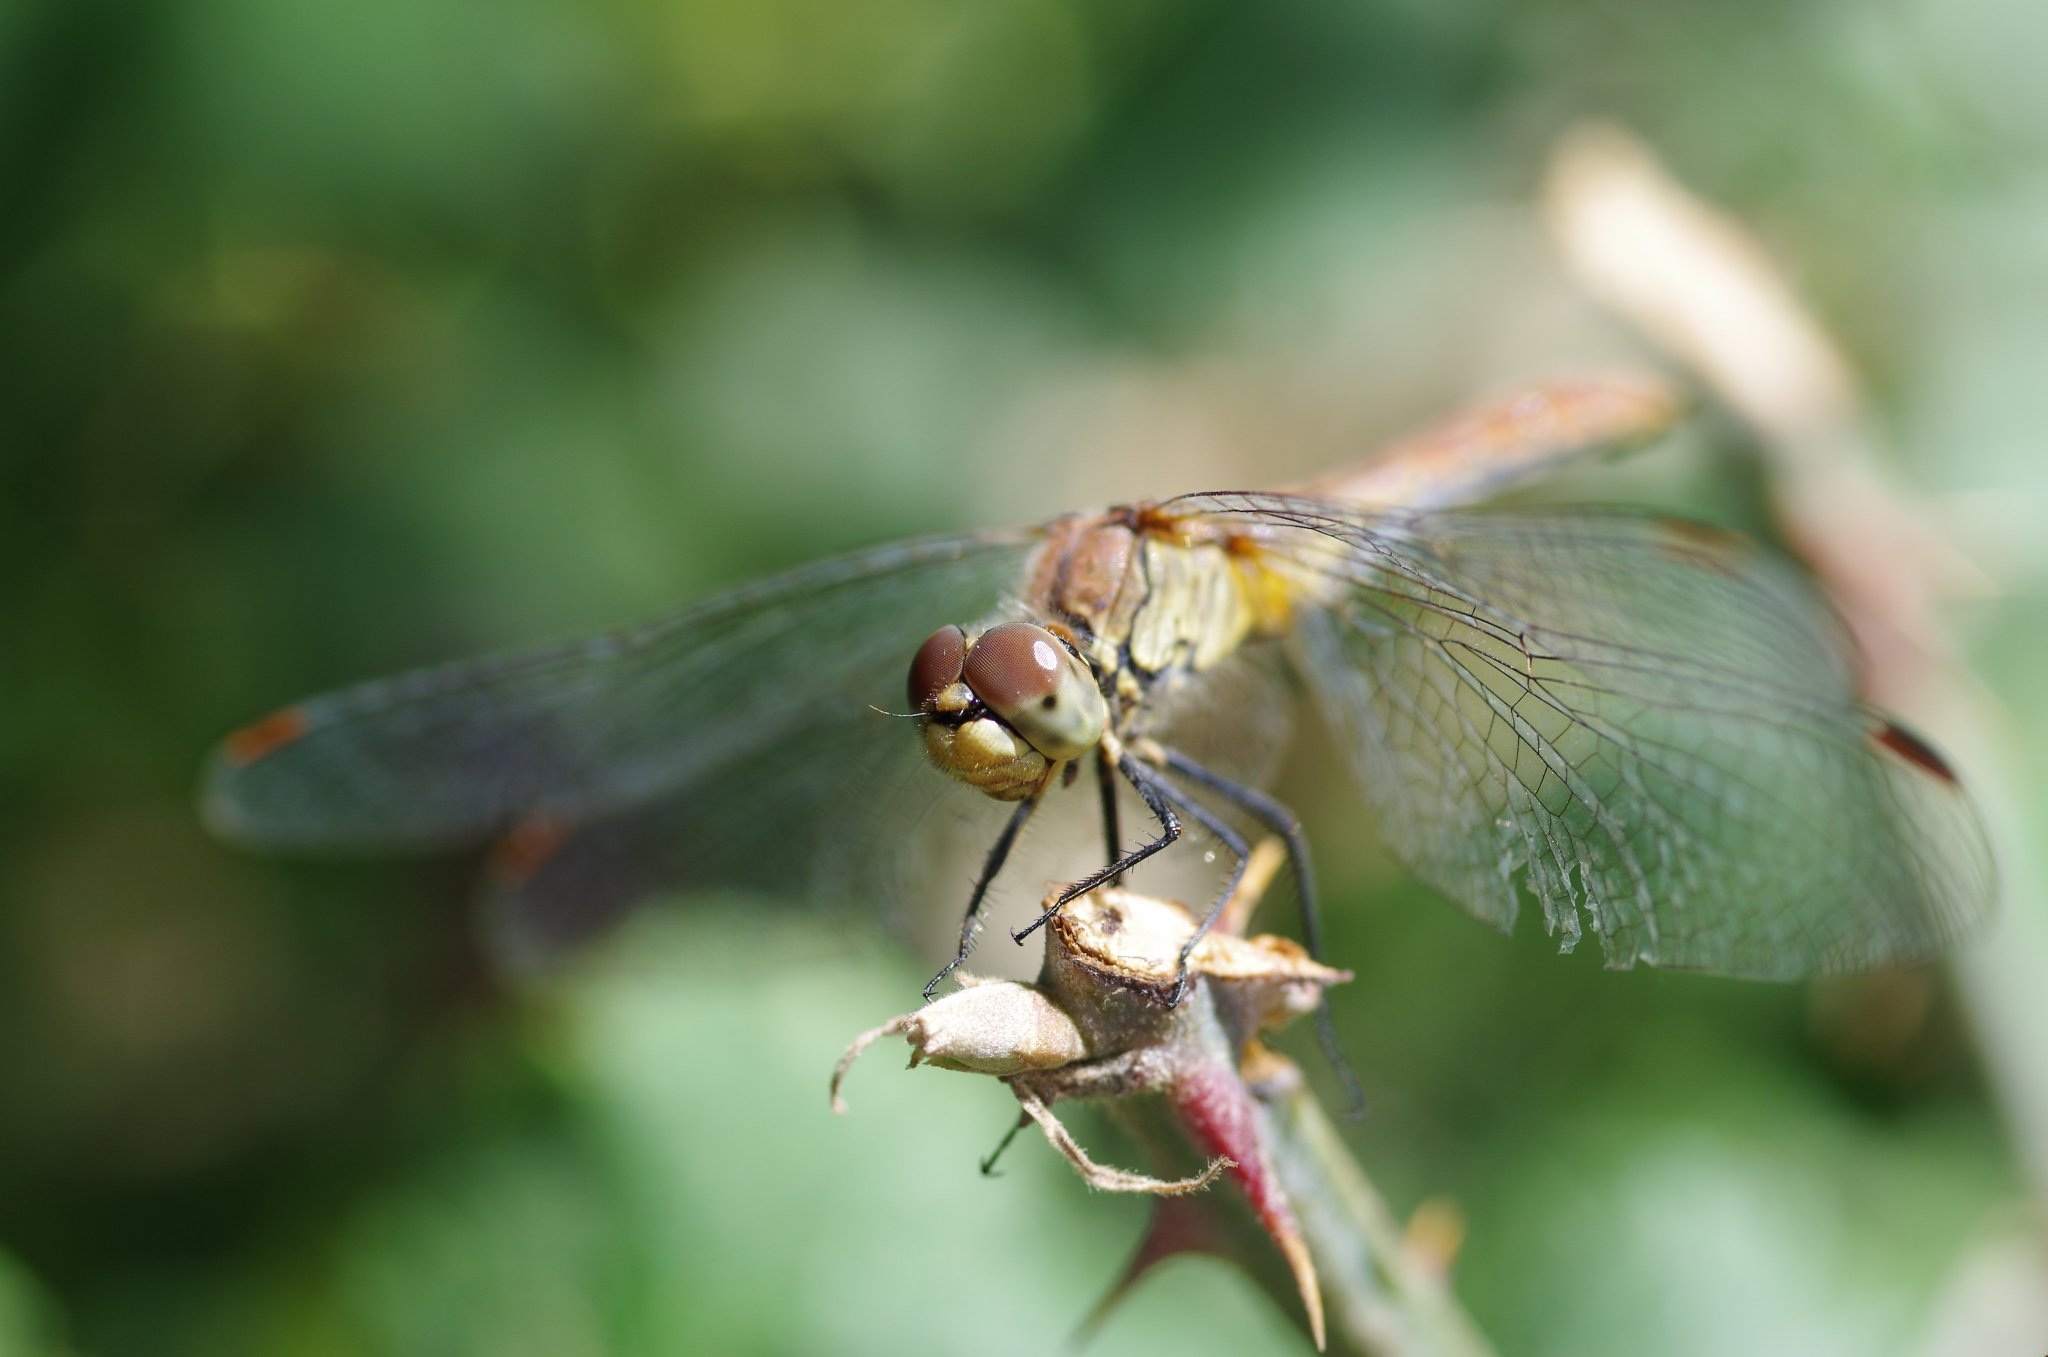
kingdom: Animalia
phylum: Arthropoda
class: Insecta
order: Odonata
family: Libellulidae
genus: Sympetrum
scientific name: Sympetrum sanguineum
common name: Ruddy darter
